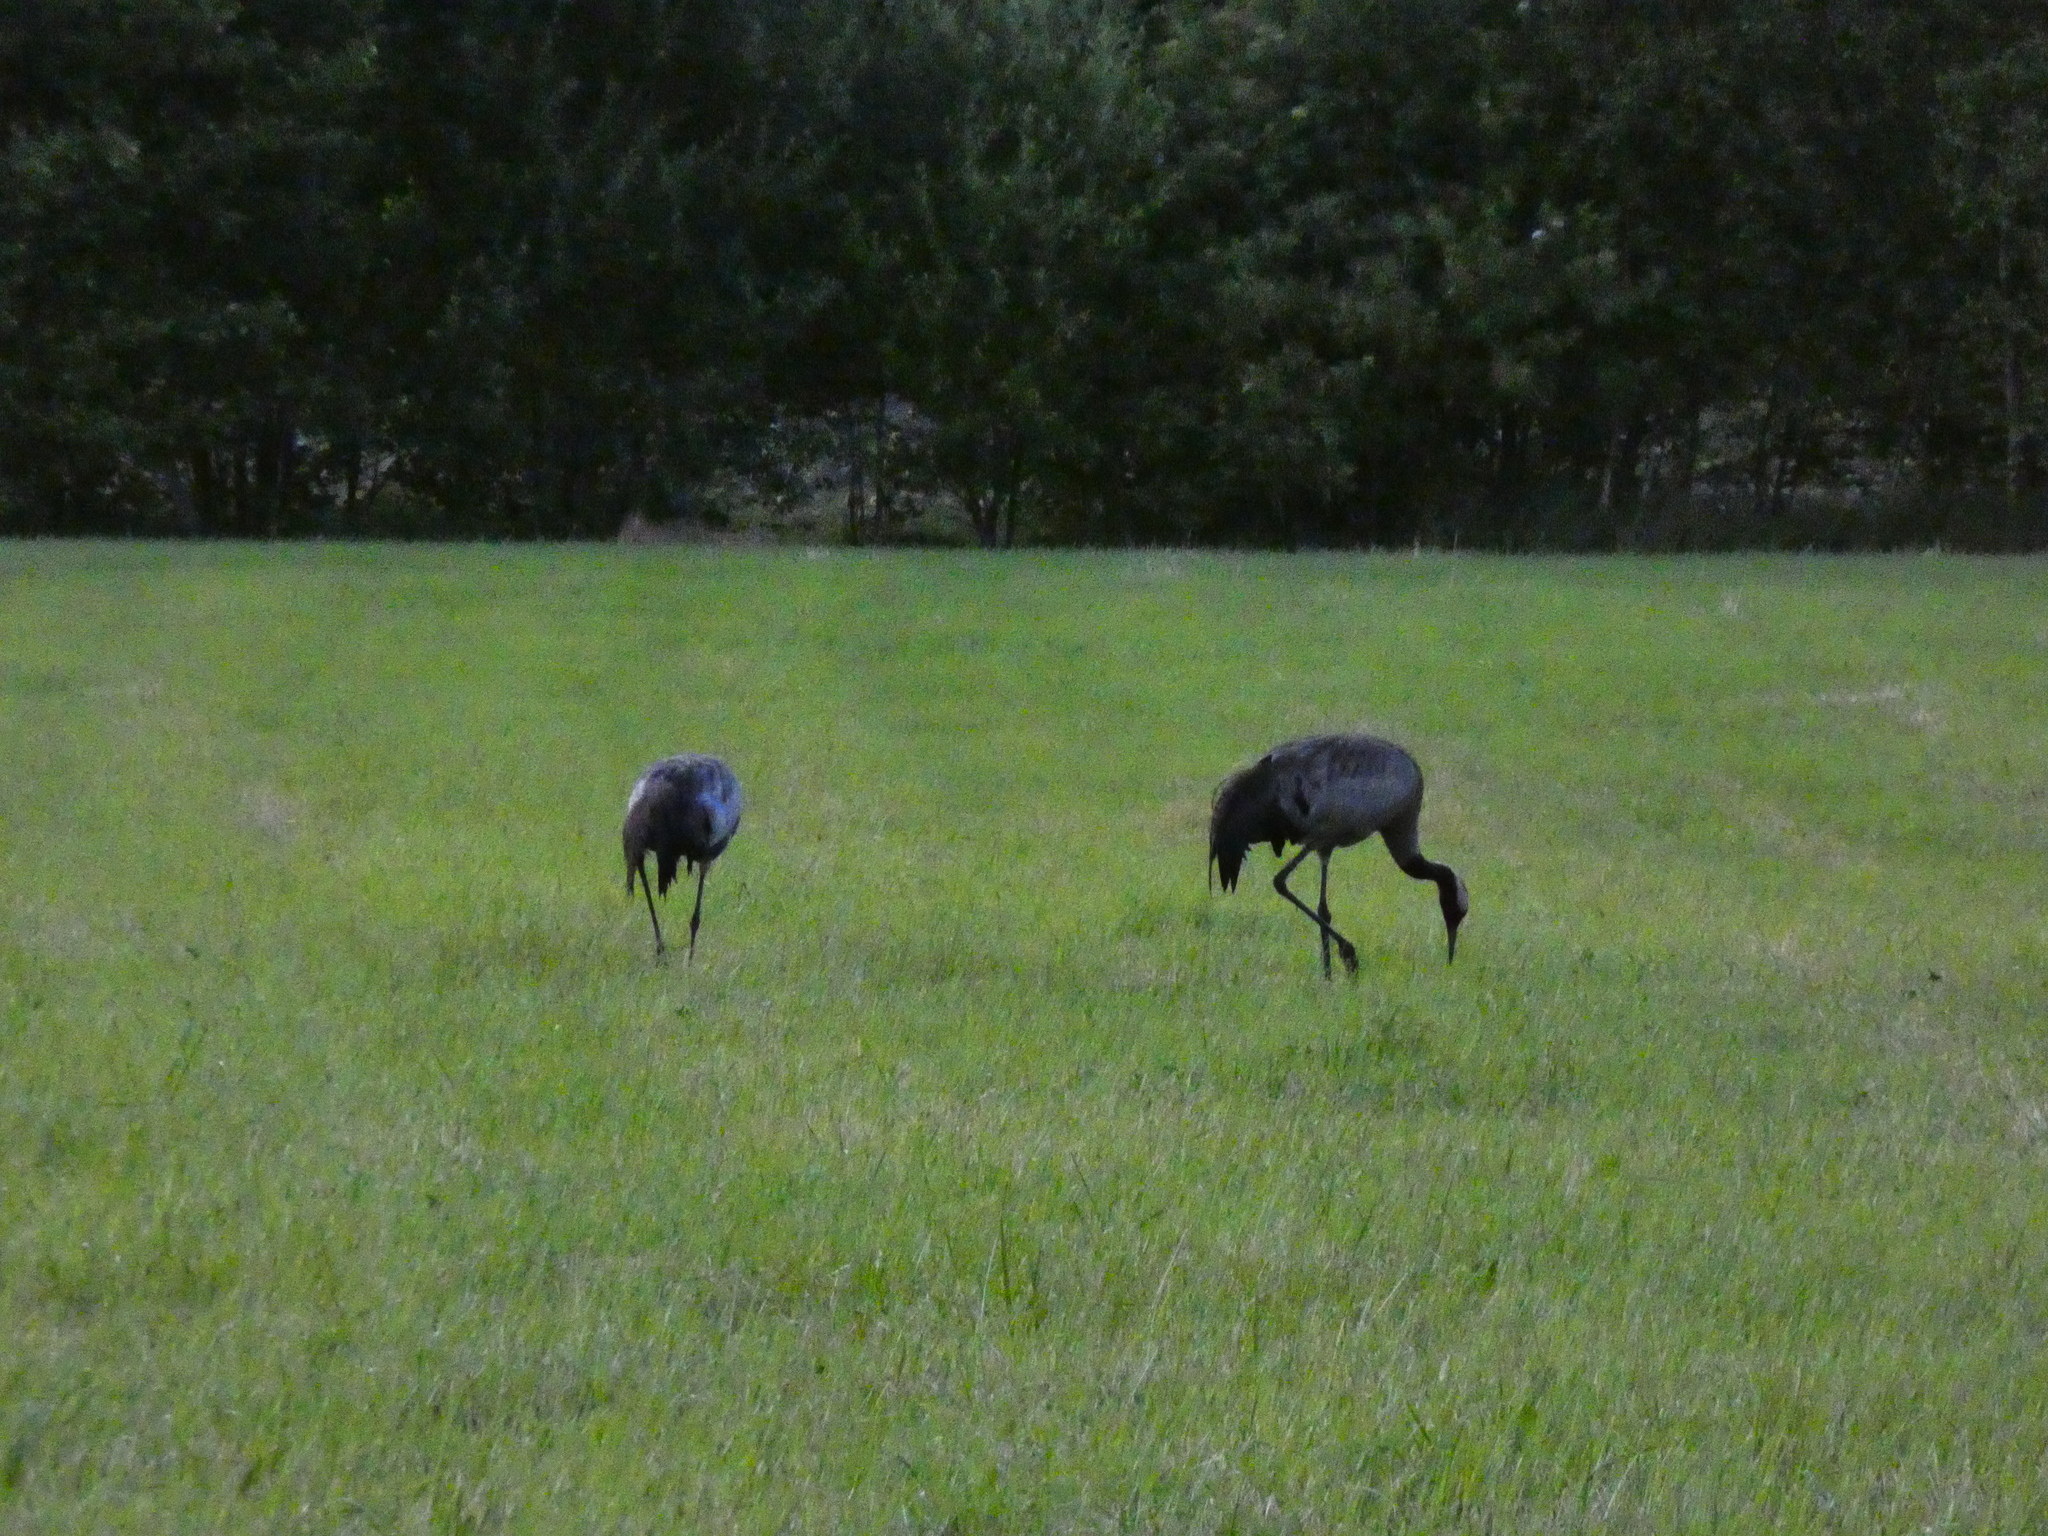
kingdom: Animalia
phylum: Chordata
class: Aves
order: Gruiformes
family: Gruidae
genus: Grus
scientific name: Grus grus
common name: Common crane
